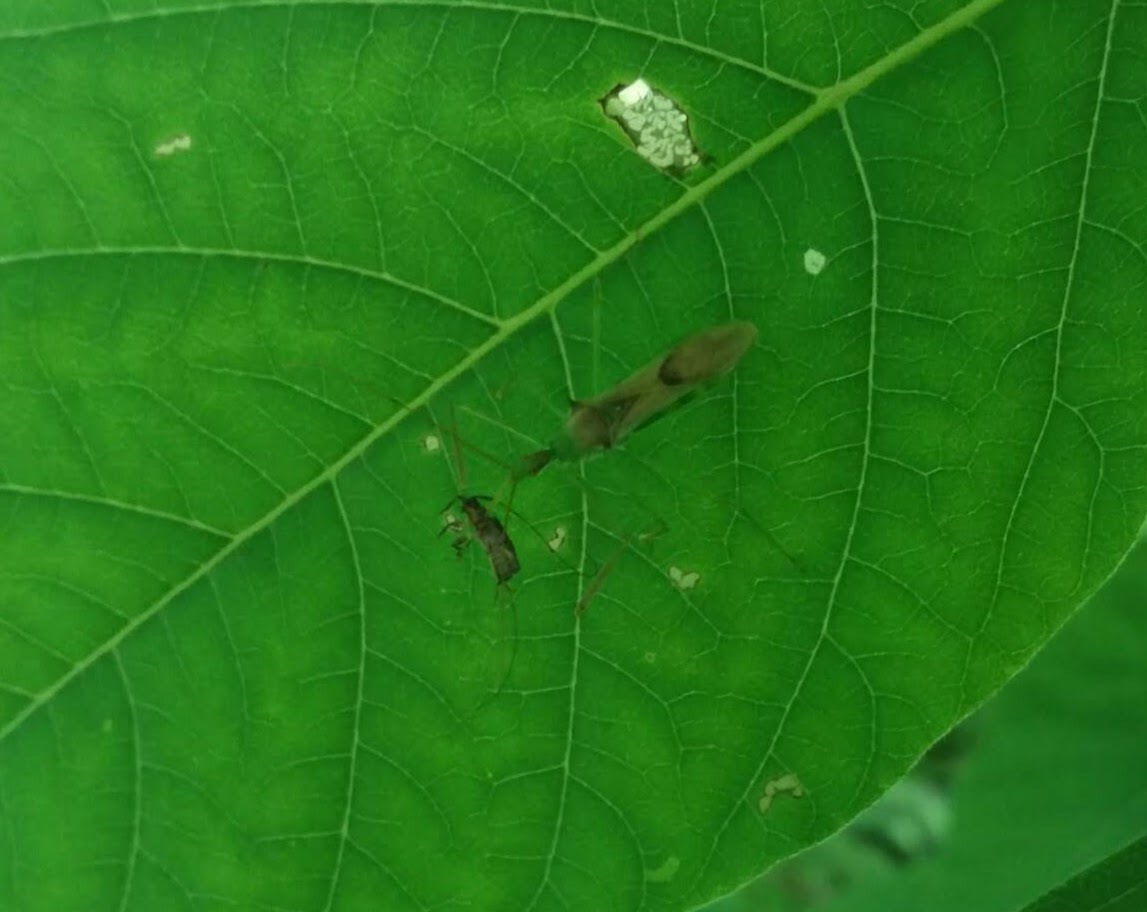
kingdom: Animalia
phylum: Arthropoda
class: Insecta
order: Hemiptera
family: Reduviidae
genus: Zelus
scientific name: Zelus luridus
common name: Pale green assassin bug
